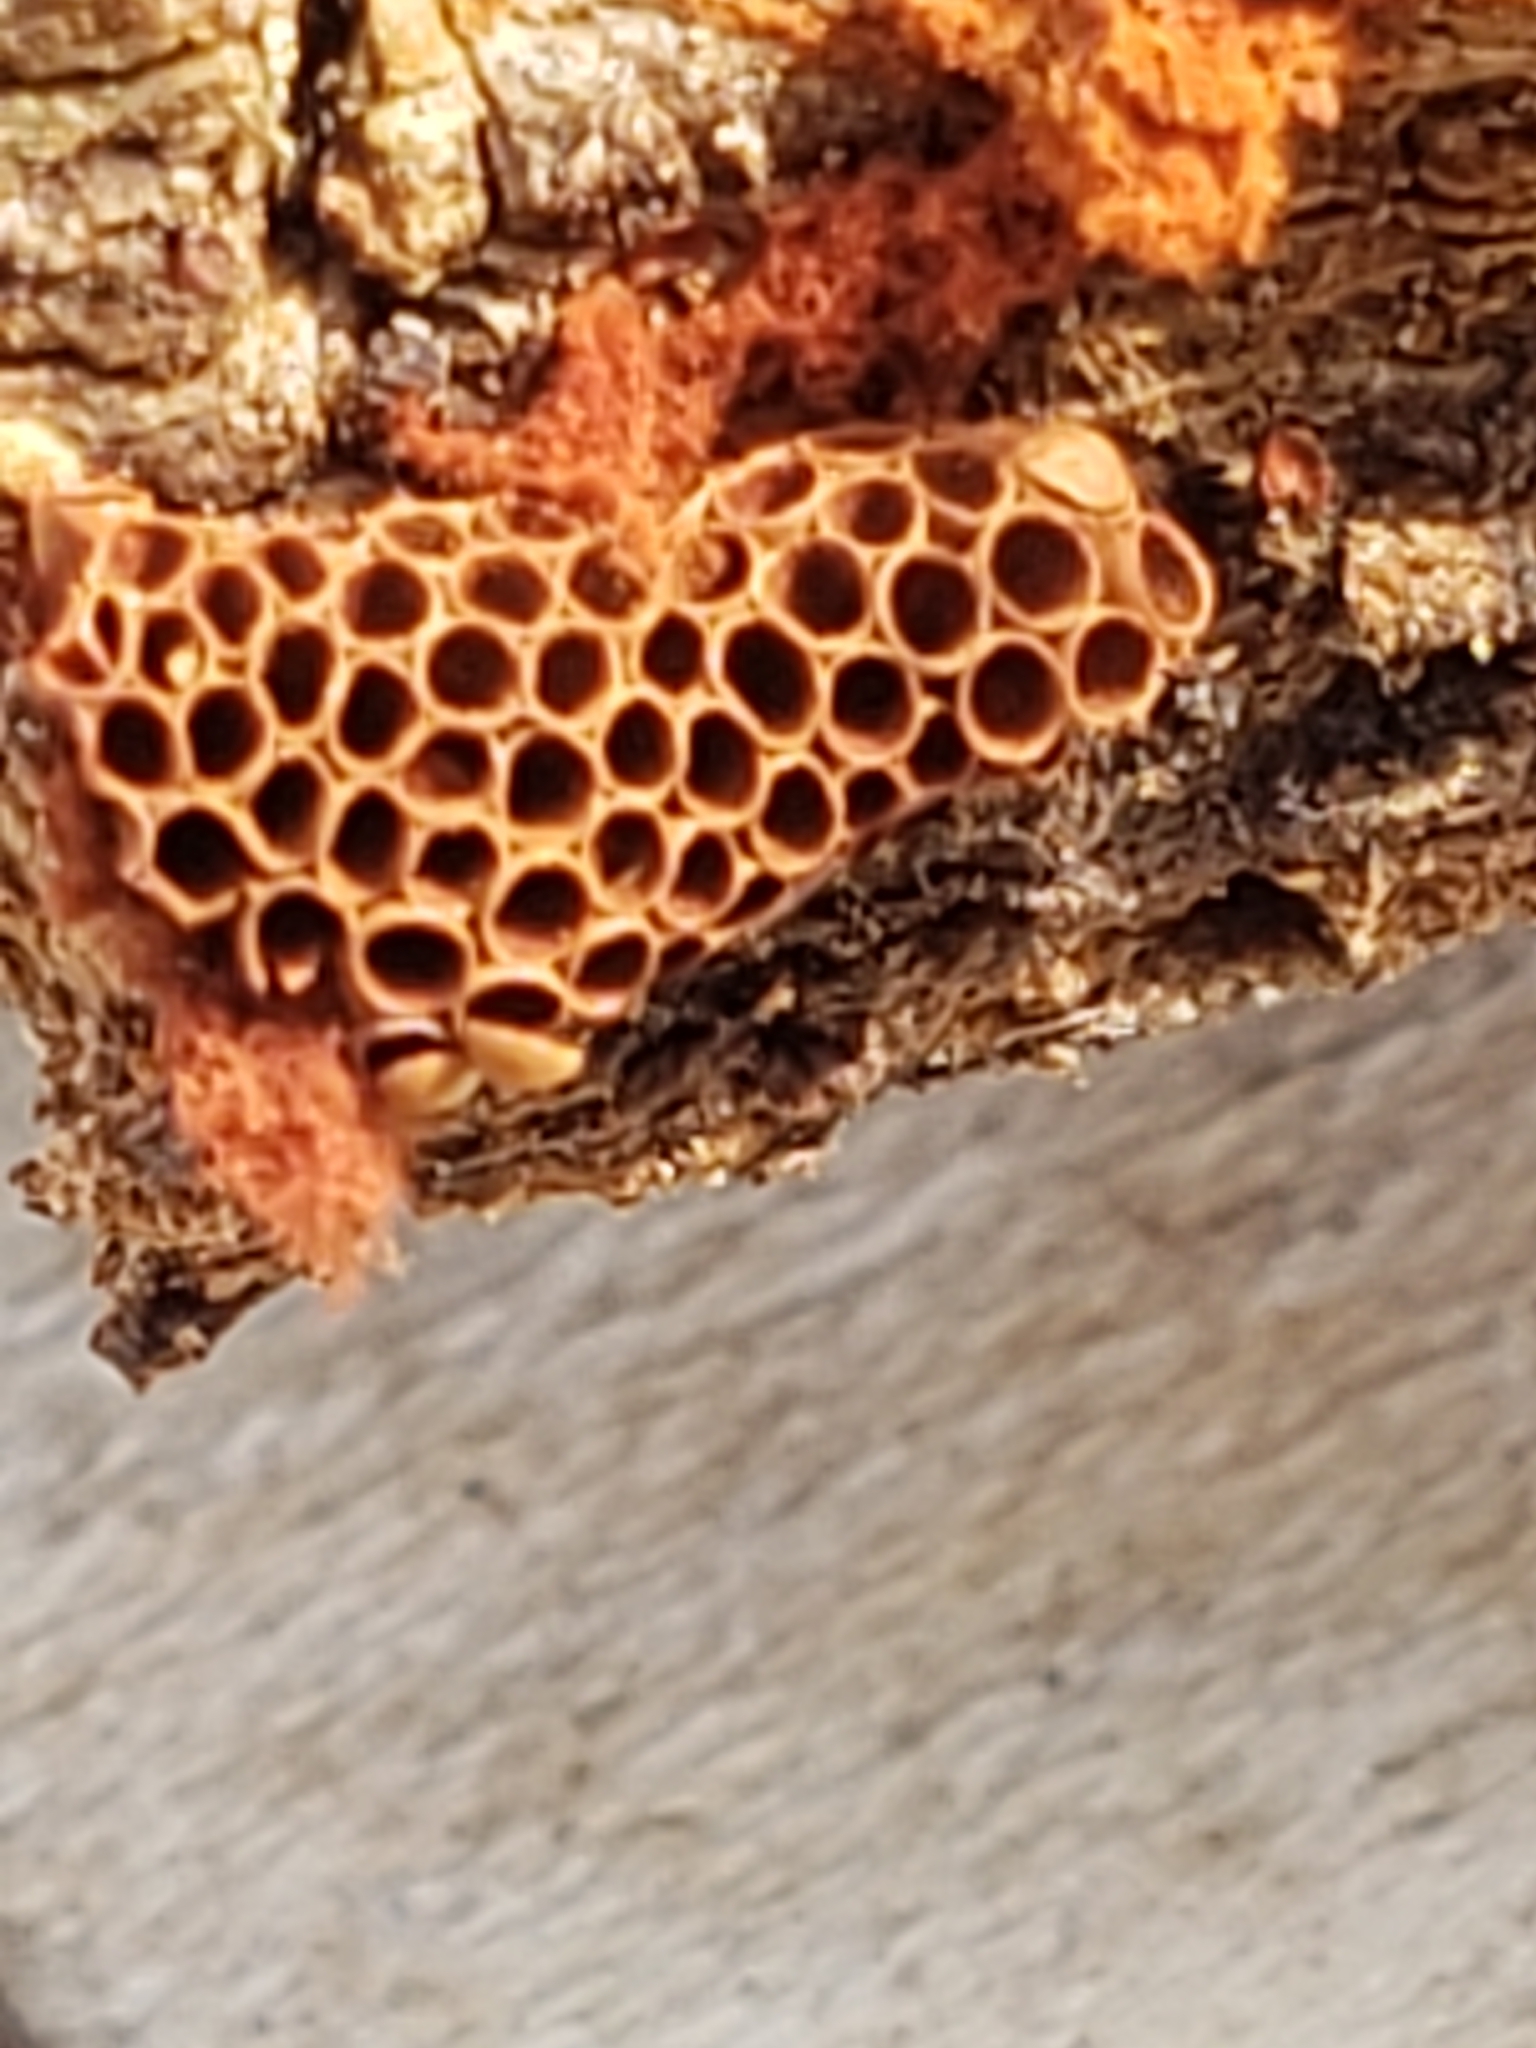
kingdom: Protozoa
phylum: Mycetozoa
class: Myxomycetes
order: Trichiales
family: Trichiaceae
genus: Metatrichia
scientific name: Metatrichia vesparia
